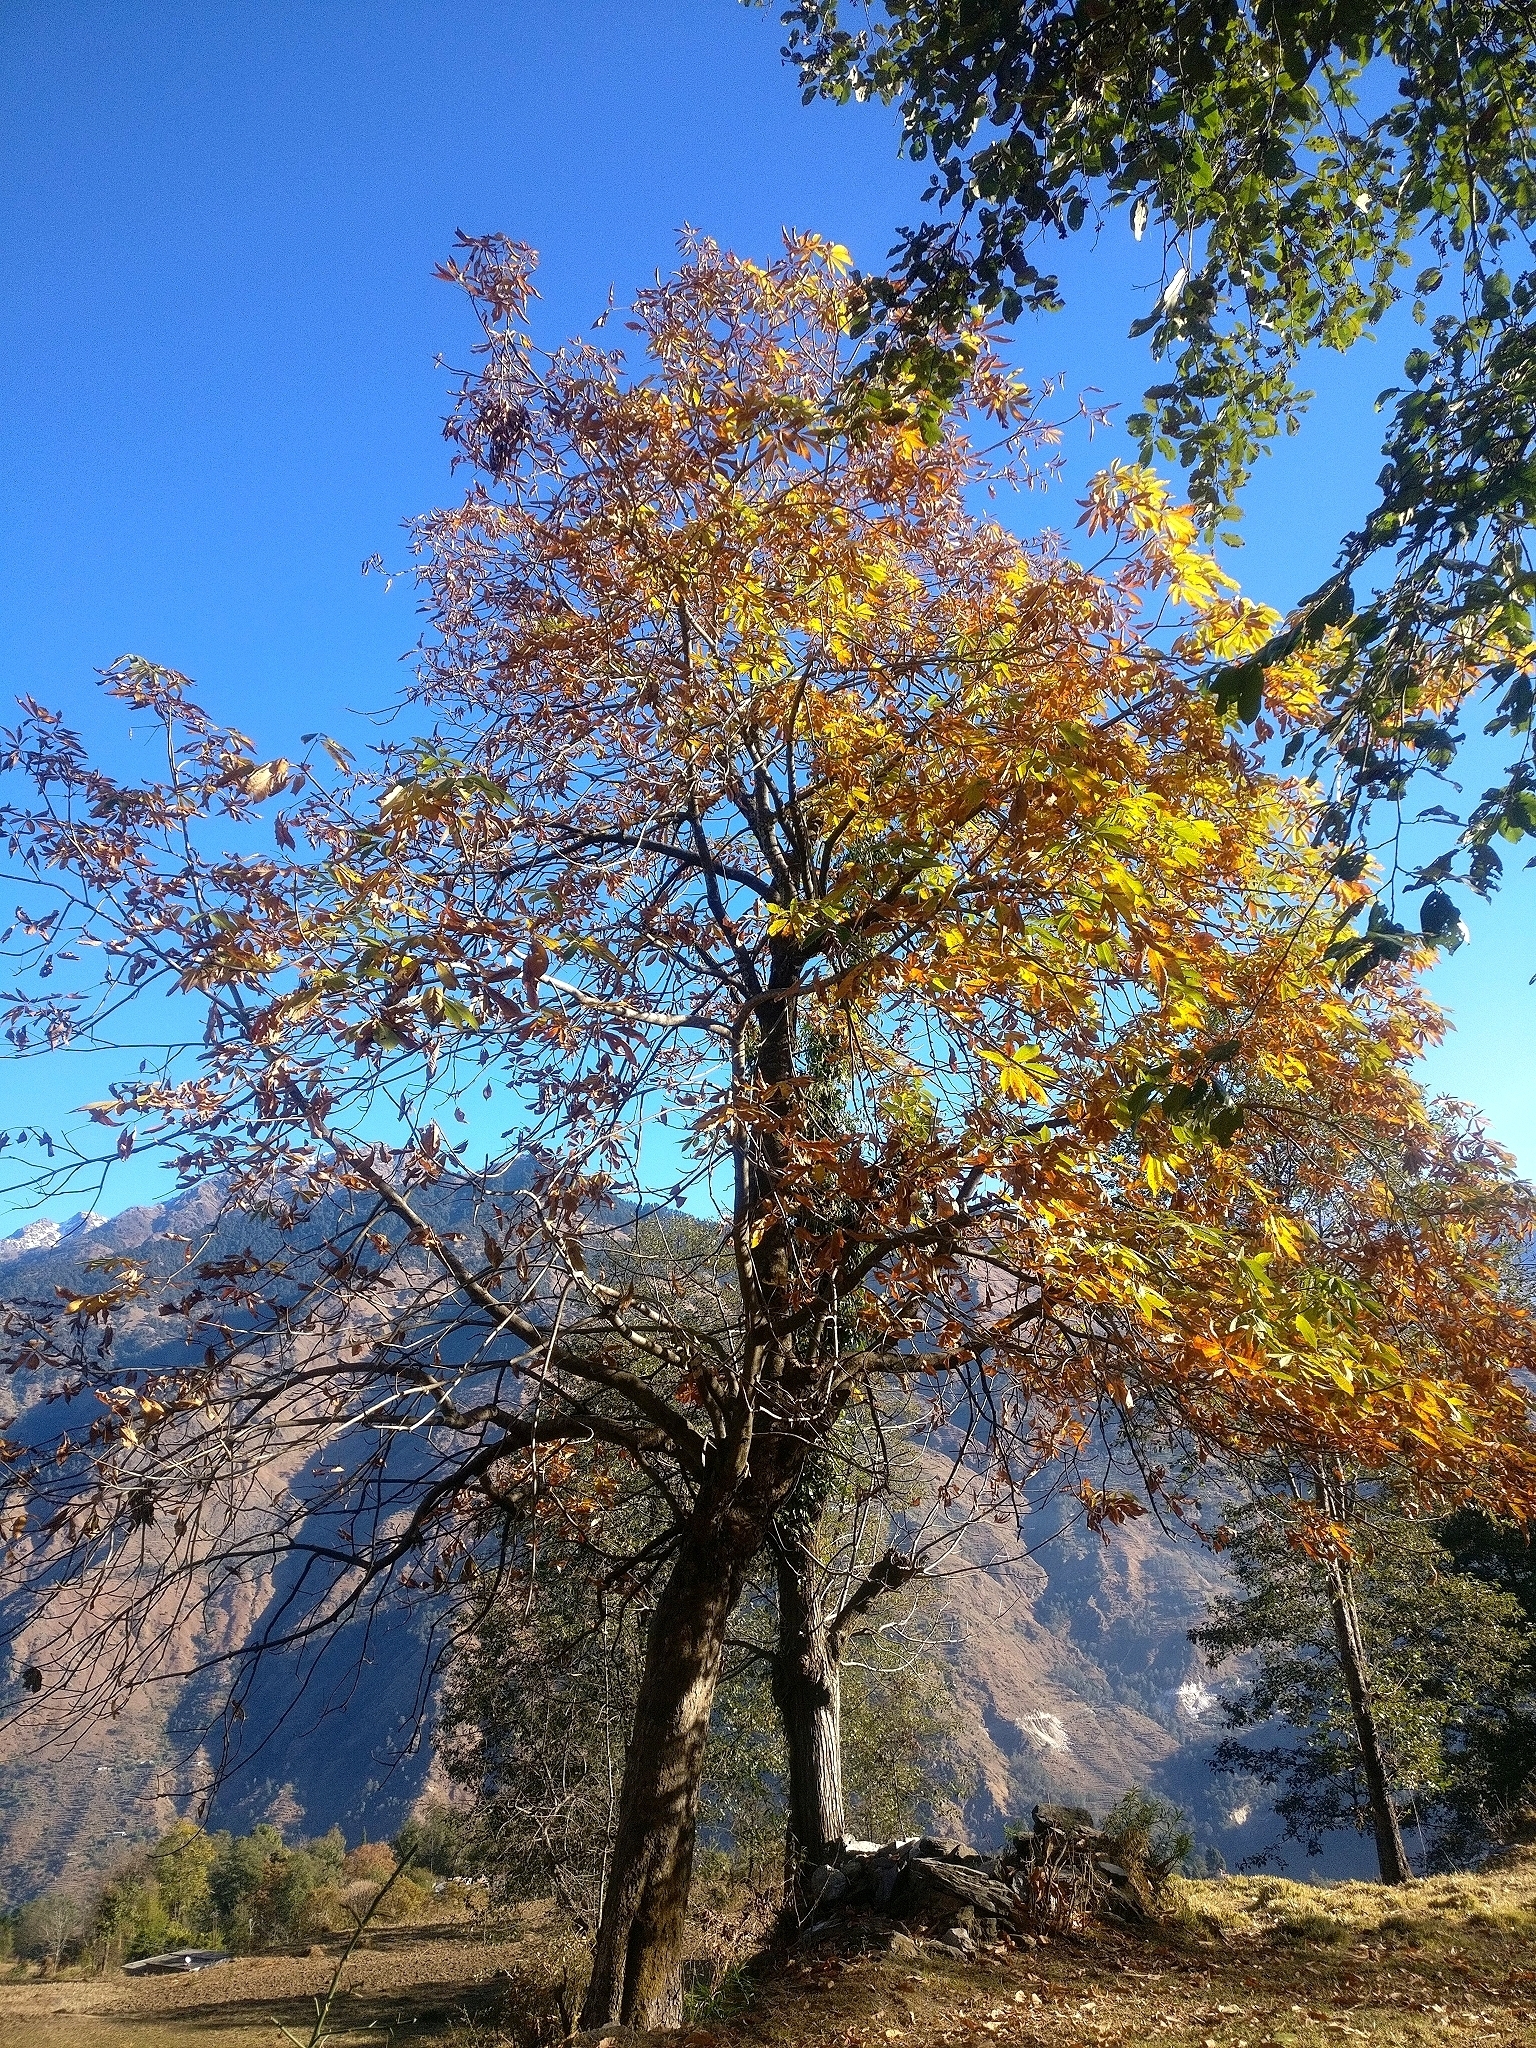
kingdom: Plantae
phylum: Tracheophyta
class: Magnoliopsida
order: Sapindales
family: Sapindaceae
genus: Aesculus
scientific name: Aesculus indica
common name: Indian horse-chestnut
